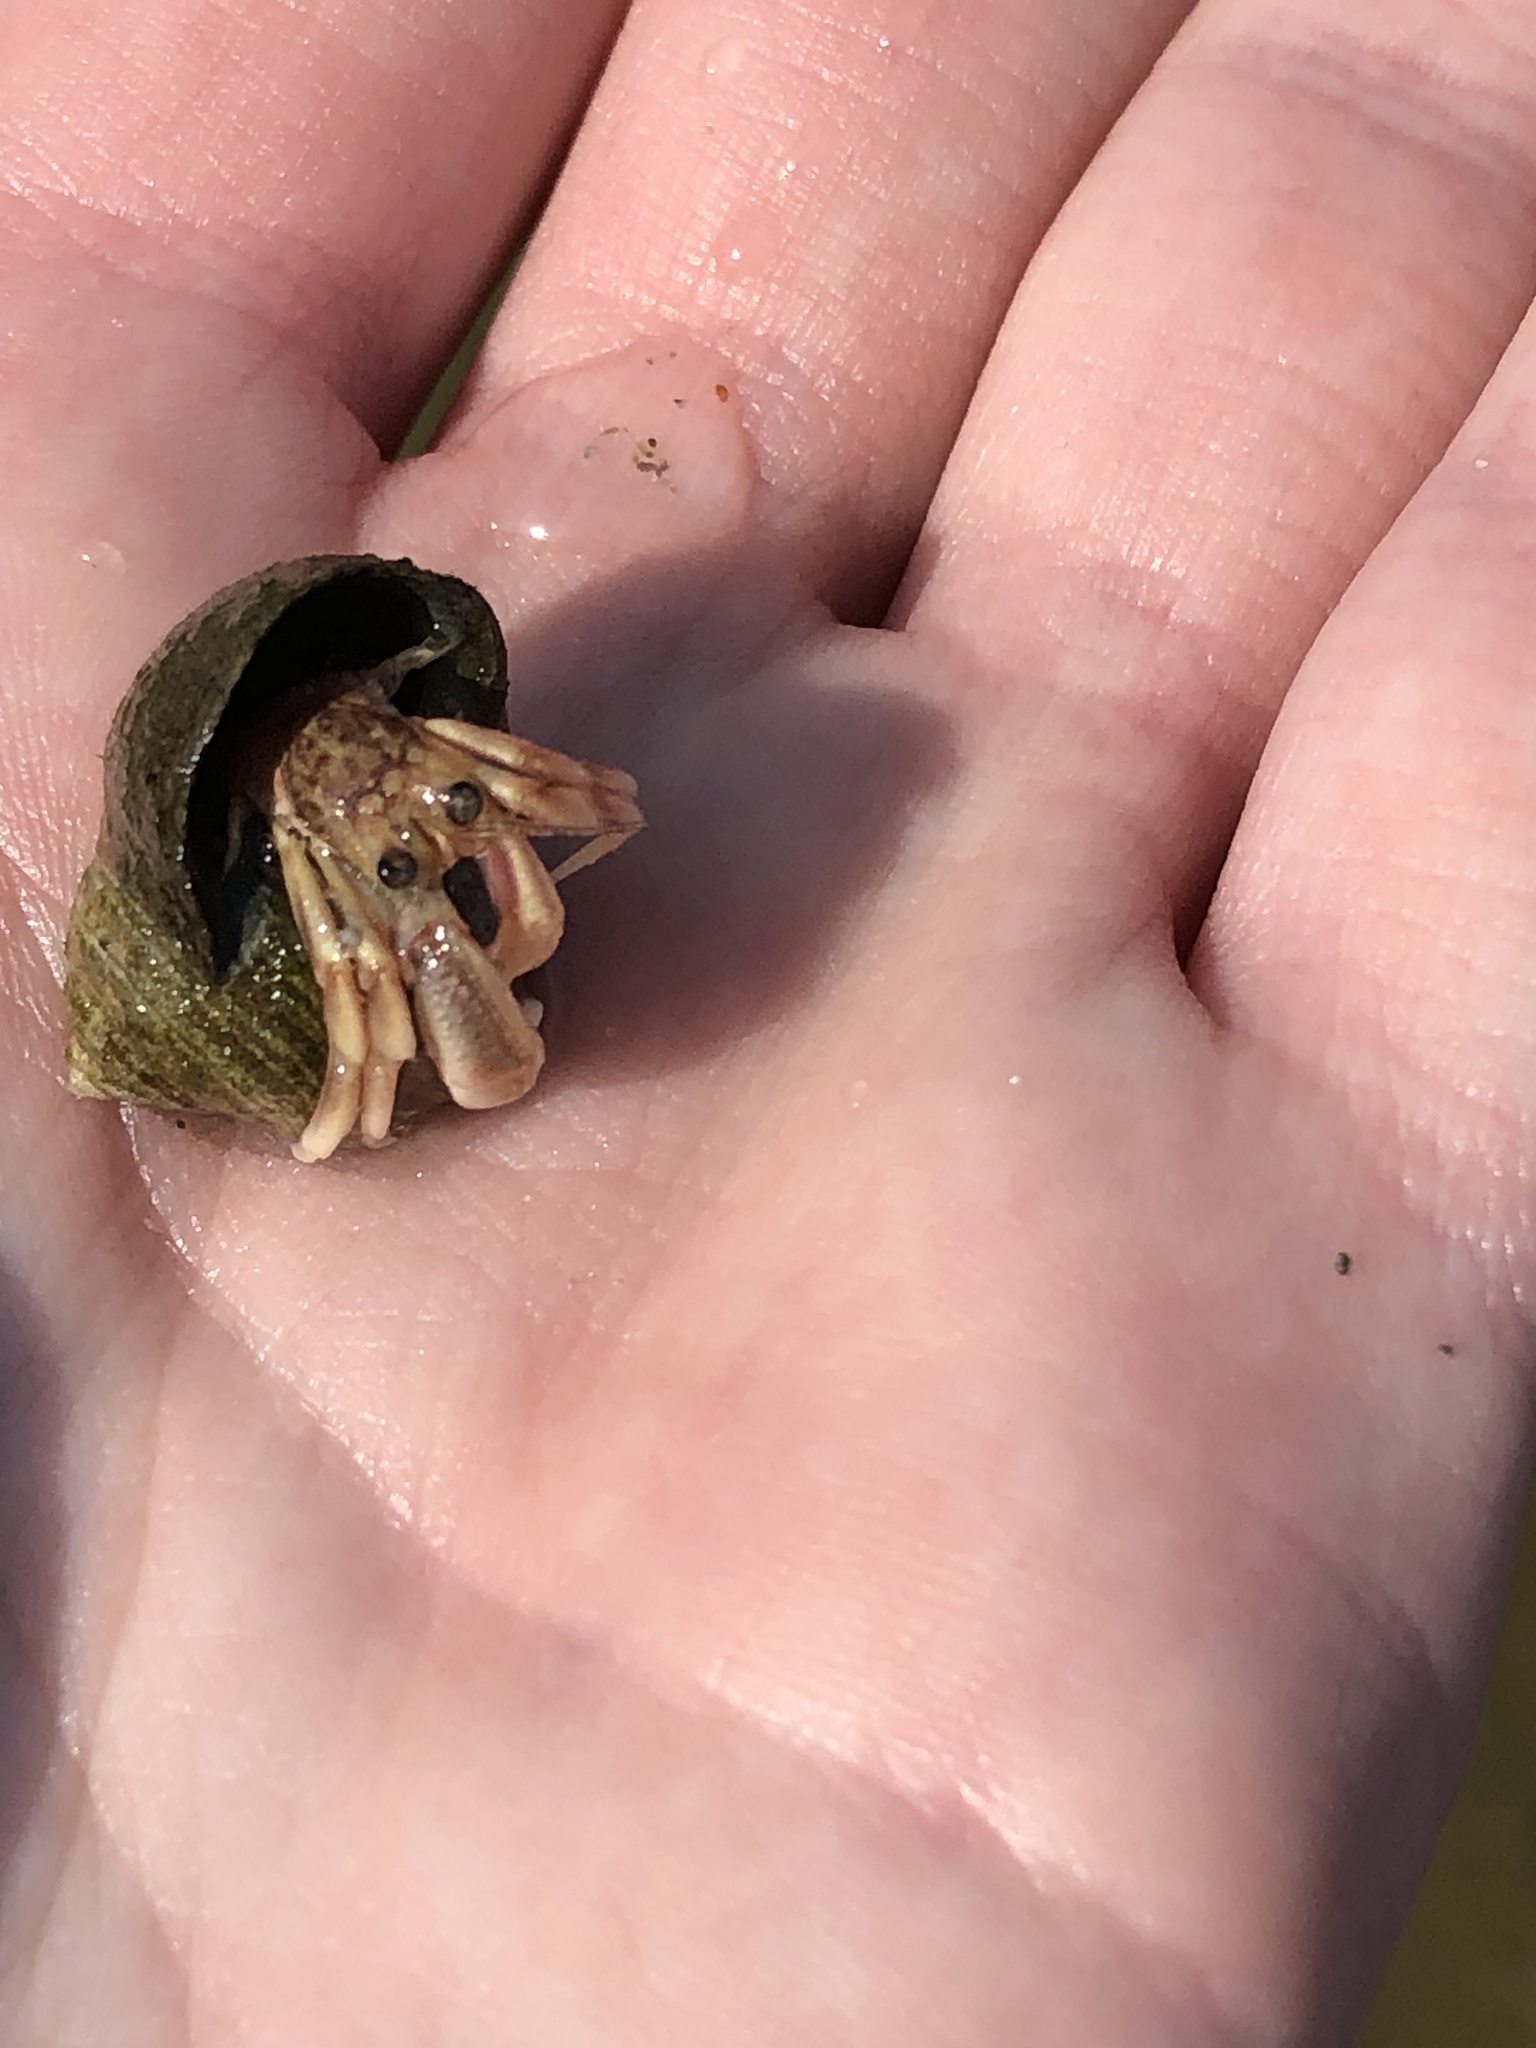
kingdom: Animalia
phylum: Arthropoda
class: Malacostraca
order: Decapoda
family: Paguridae
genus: Pagurus
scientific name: Pagurus longicarpus
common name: Long-armed hermit crab
